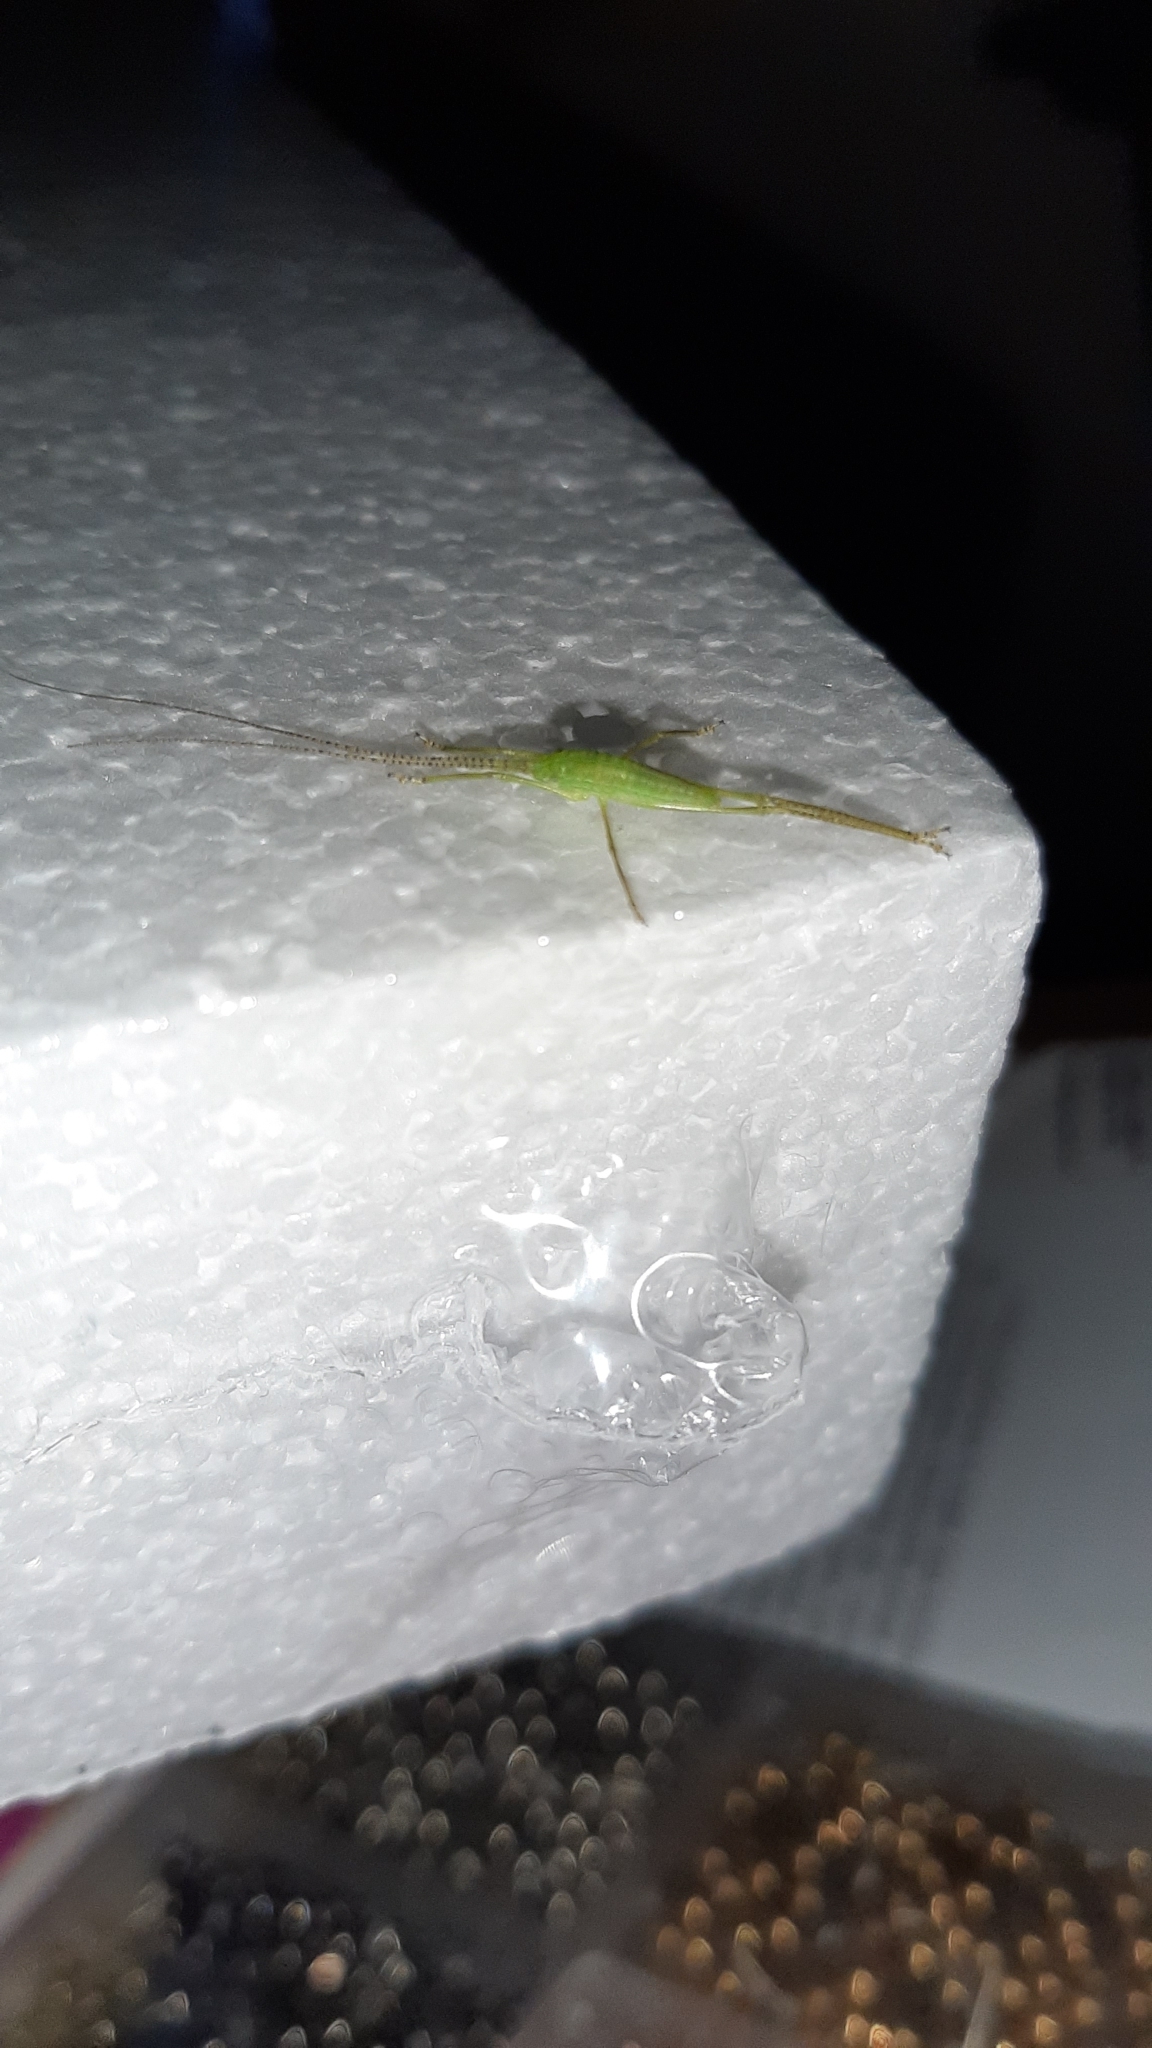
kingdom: Animalia
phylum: Arthropoda
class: Insecta
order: Orthoptera
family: Tettigoniidae
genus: Pterophylla
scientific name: Pterophylla camellifolia
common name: Common true katydid
